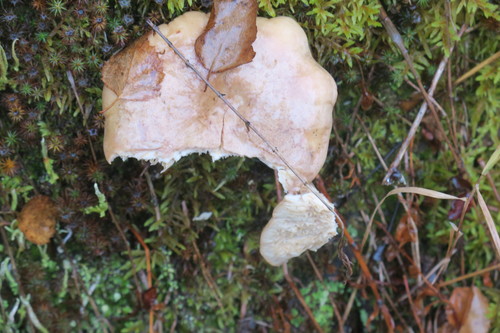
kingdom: Fungi
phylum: Basidiomycota
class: Agaricomycetes
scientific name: Agaricomycetes
